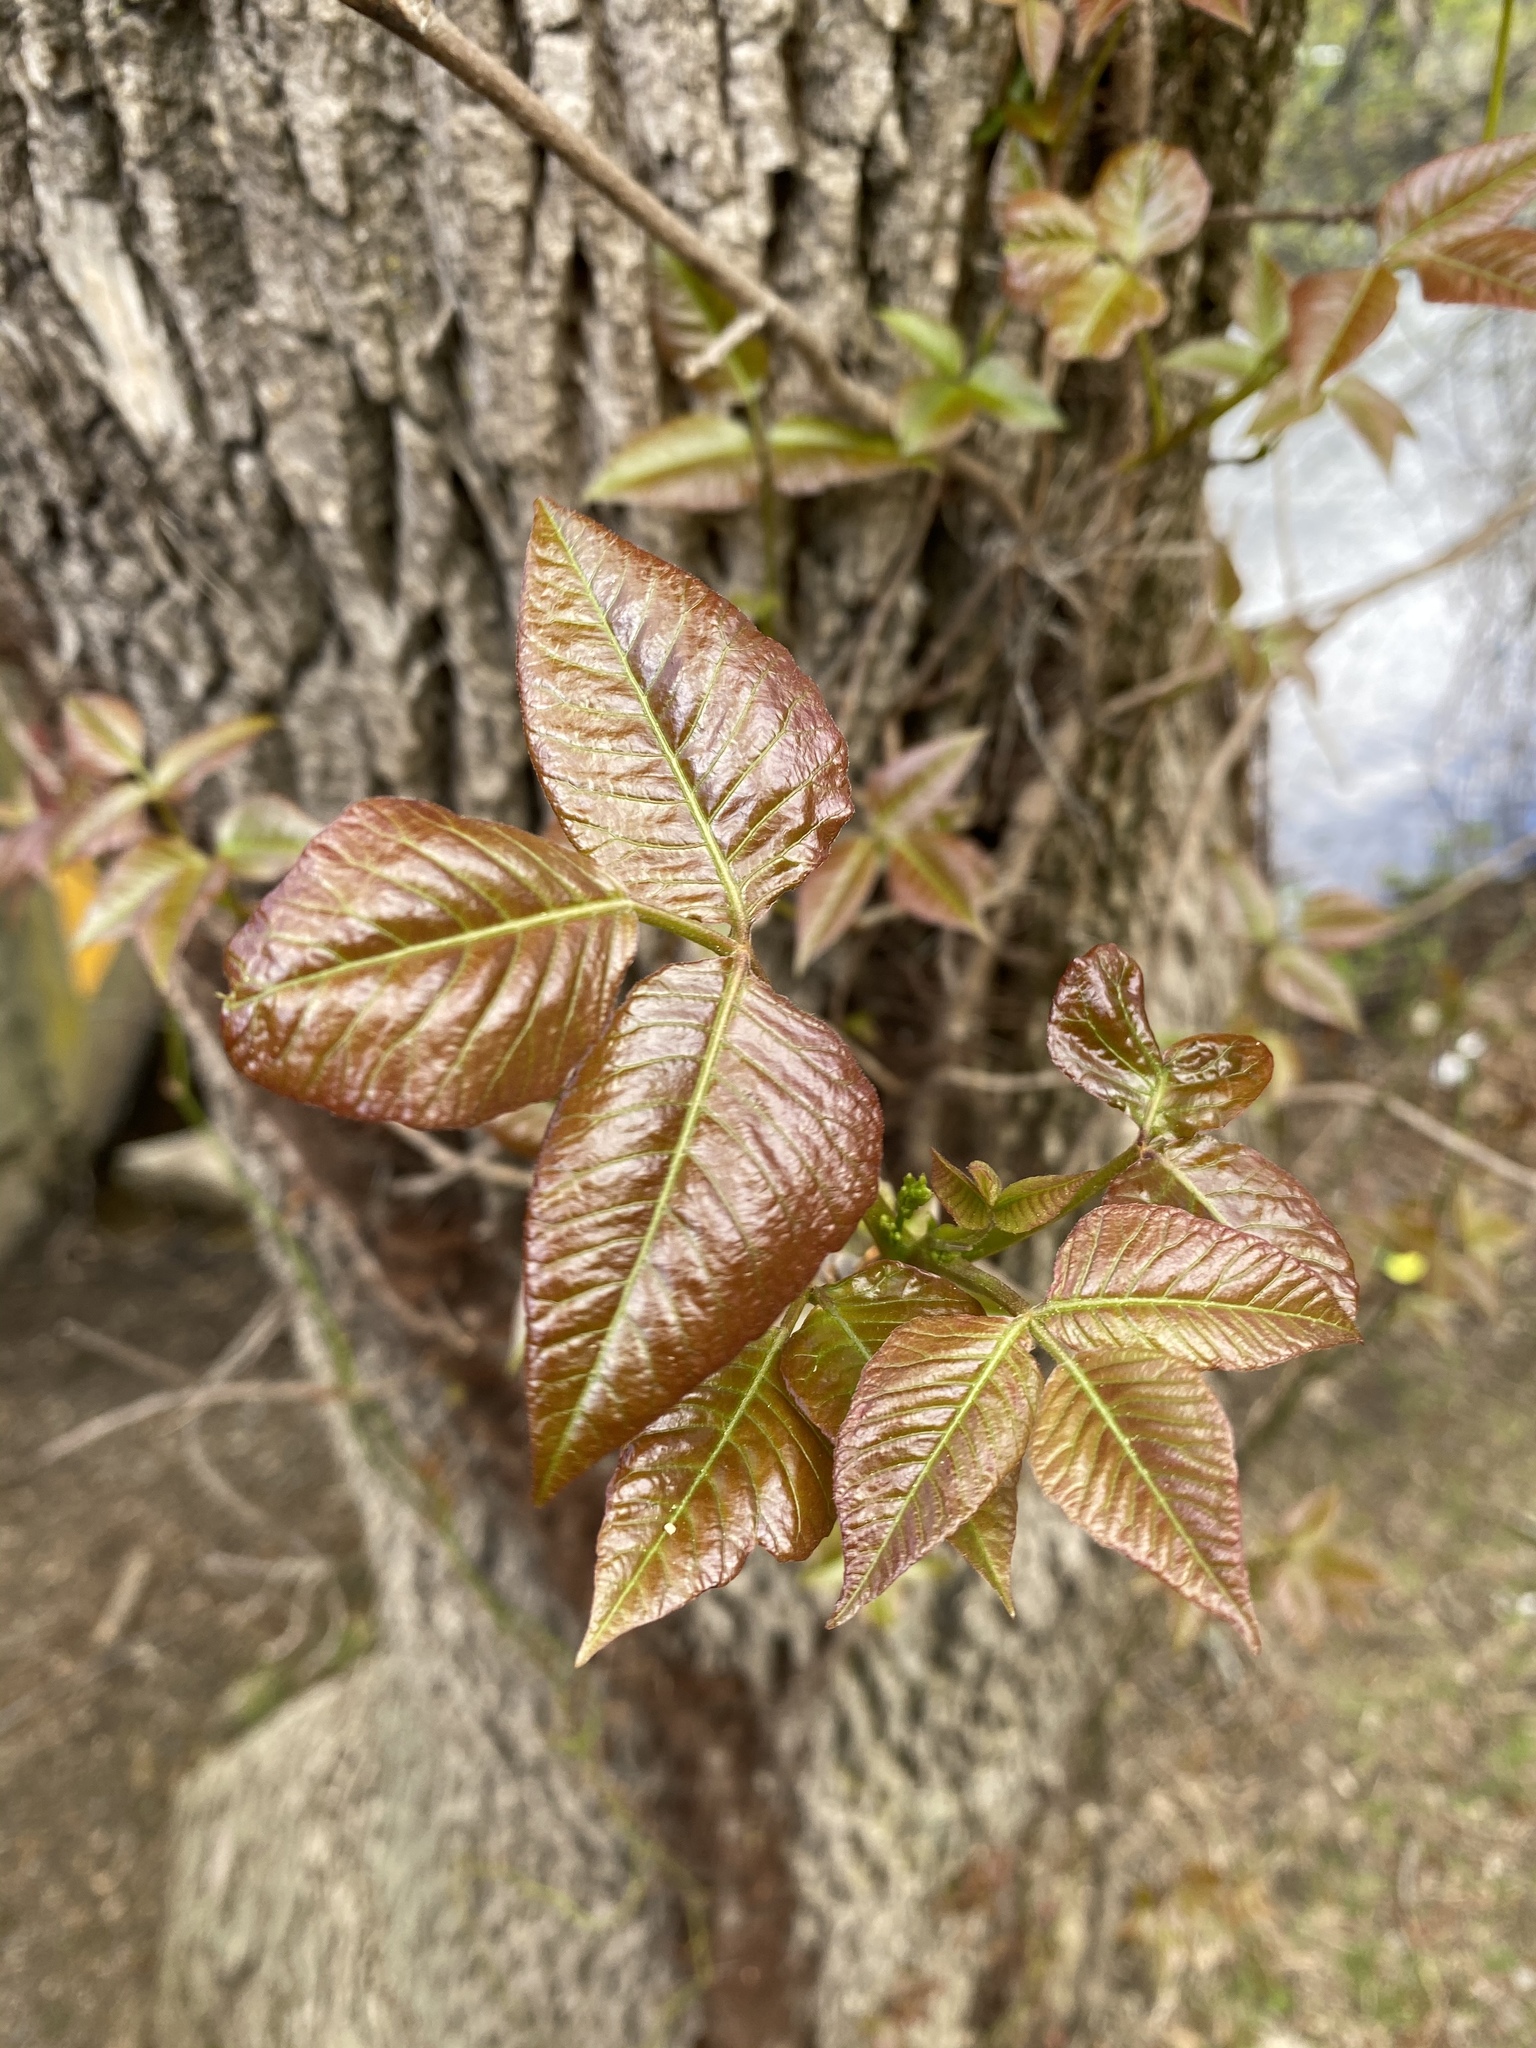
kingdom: Plantae
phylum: Tracheophyta
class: Magnoliopsida
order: Sapindales
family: Anacardiaceae
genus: Toxicodendron
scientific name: Toxicodendron radicans
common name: Poison ivy
